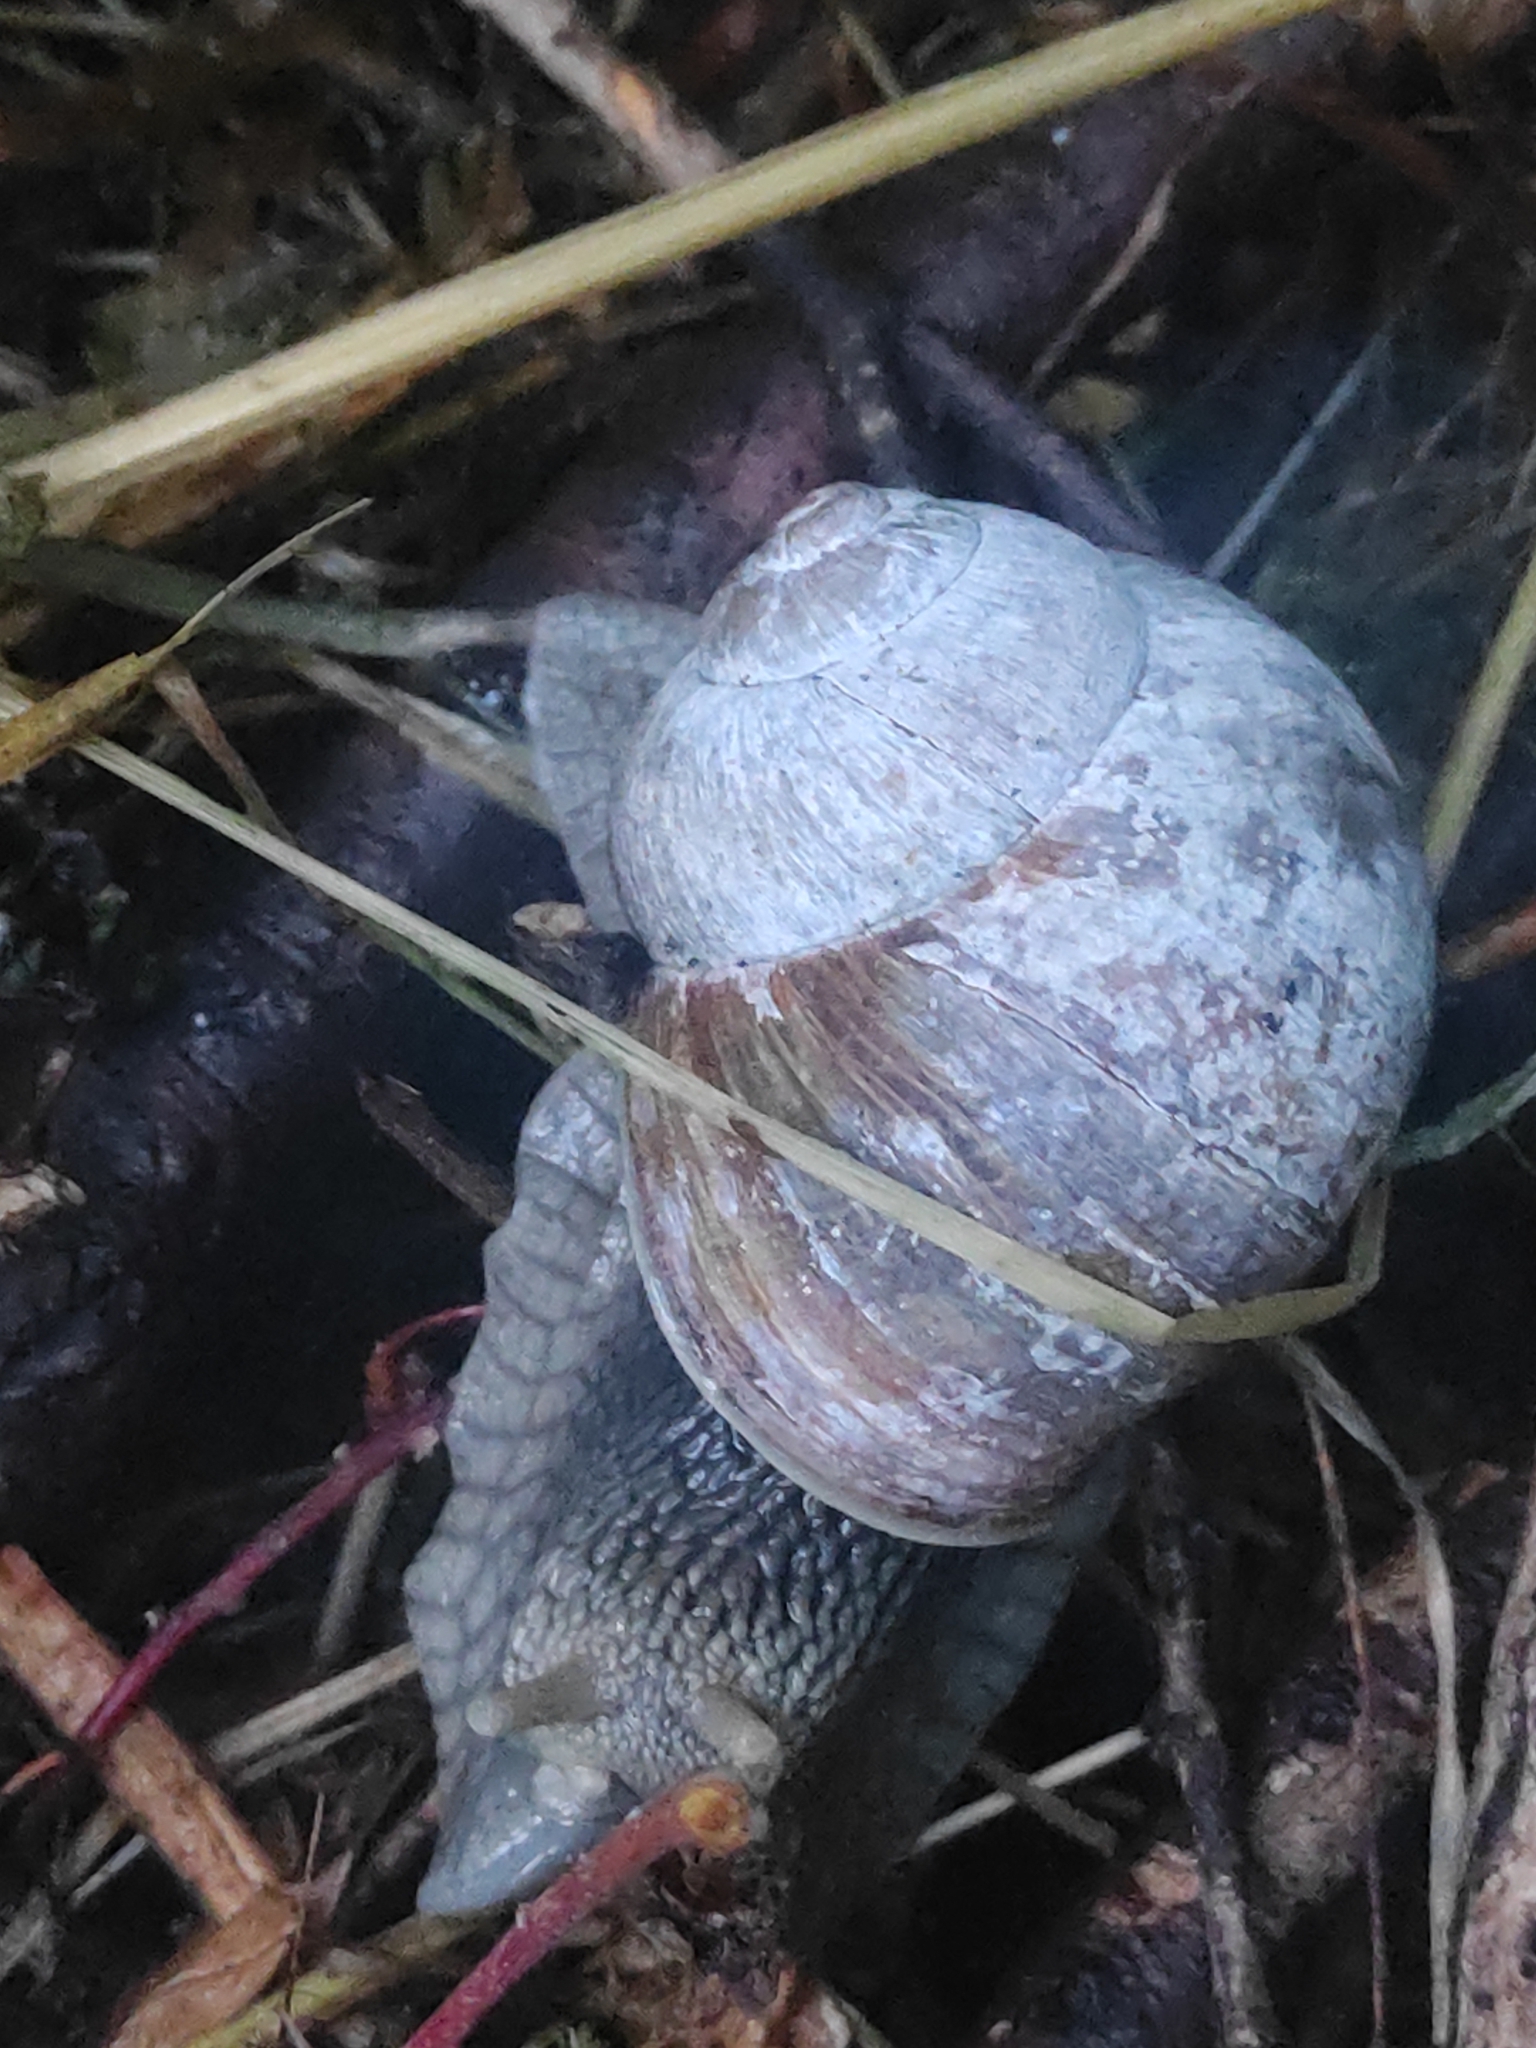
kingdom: Animalia
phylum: Mollusca
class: Gastropoda
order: Stylommatophora
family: Helicidae
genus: Helix
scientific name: Helix pomatia
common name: Roman snail
